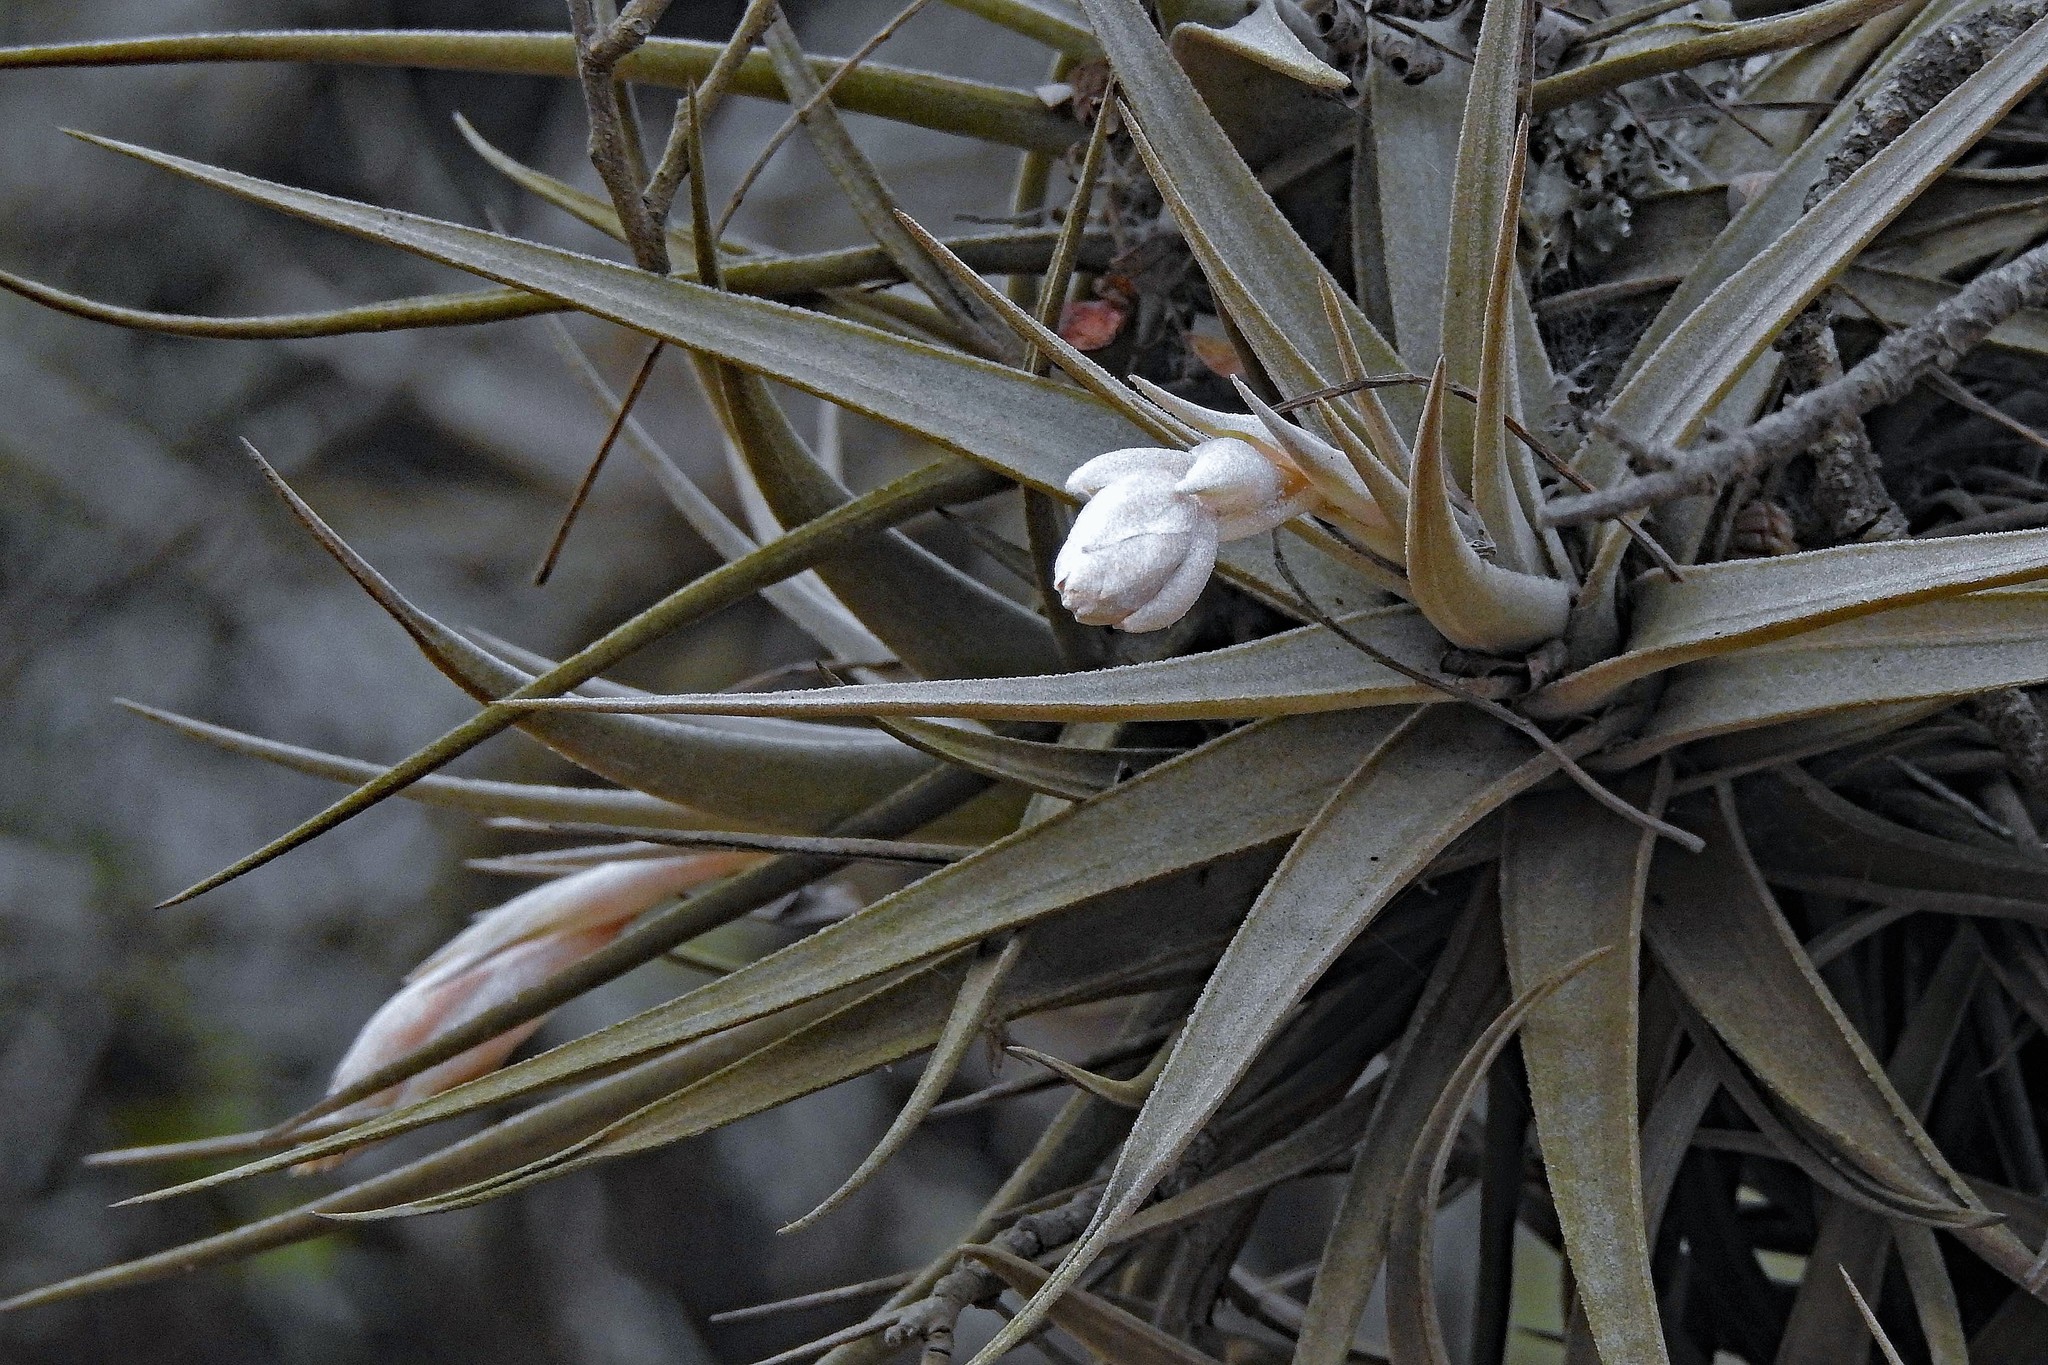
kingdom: Plantae
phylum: Tracheophyta
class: Liliopsida
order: Poales
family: Bromeliaceae
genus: Tillandsia
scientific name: Tillandsia ixioides
